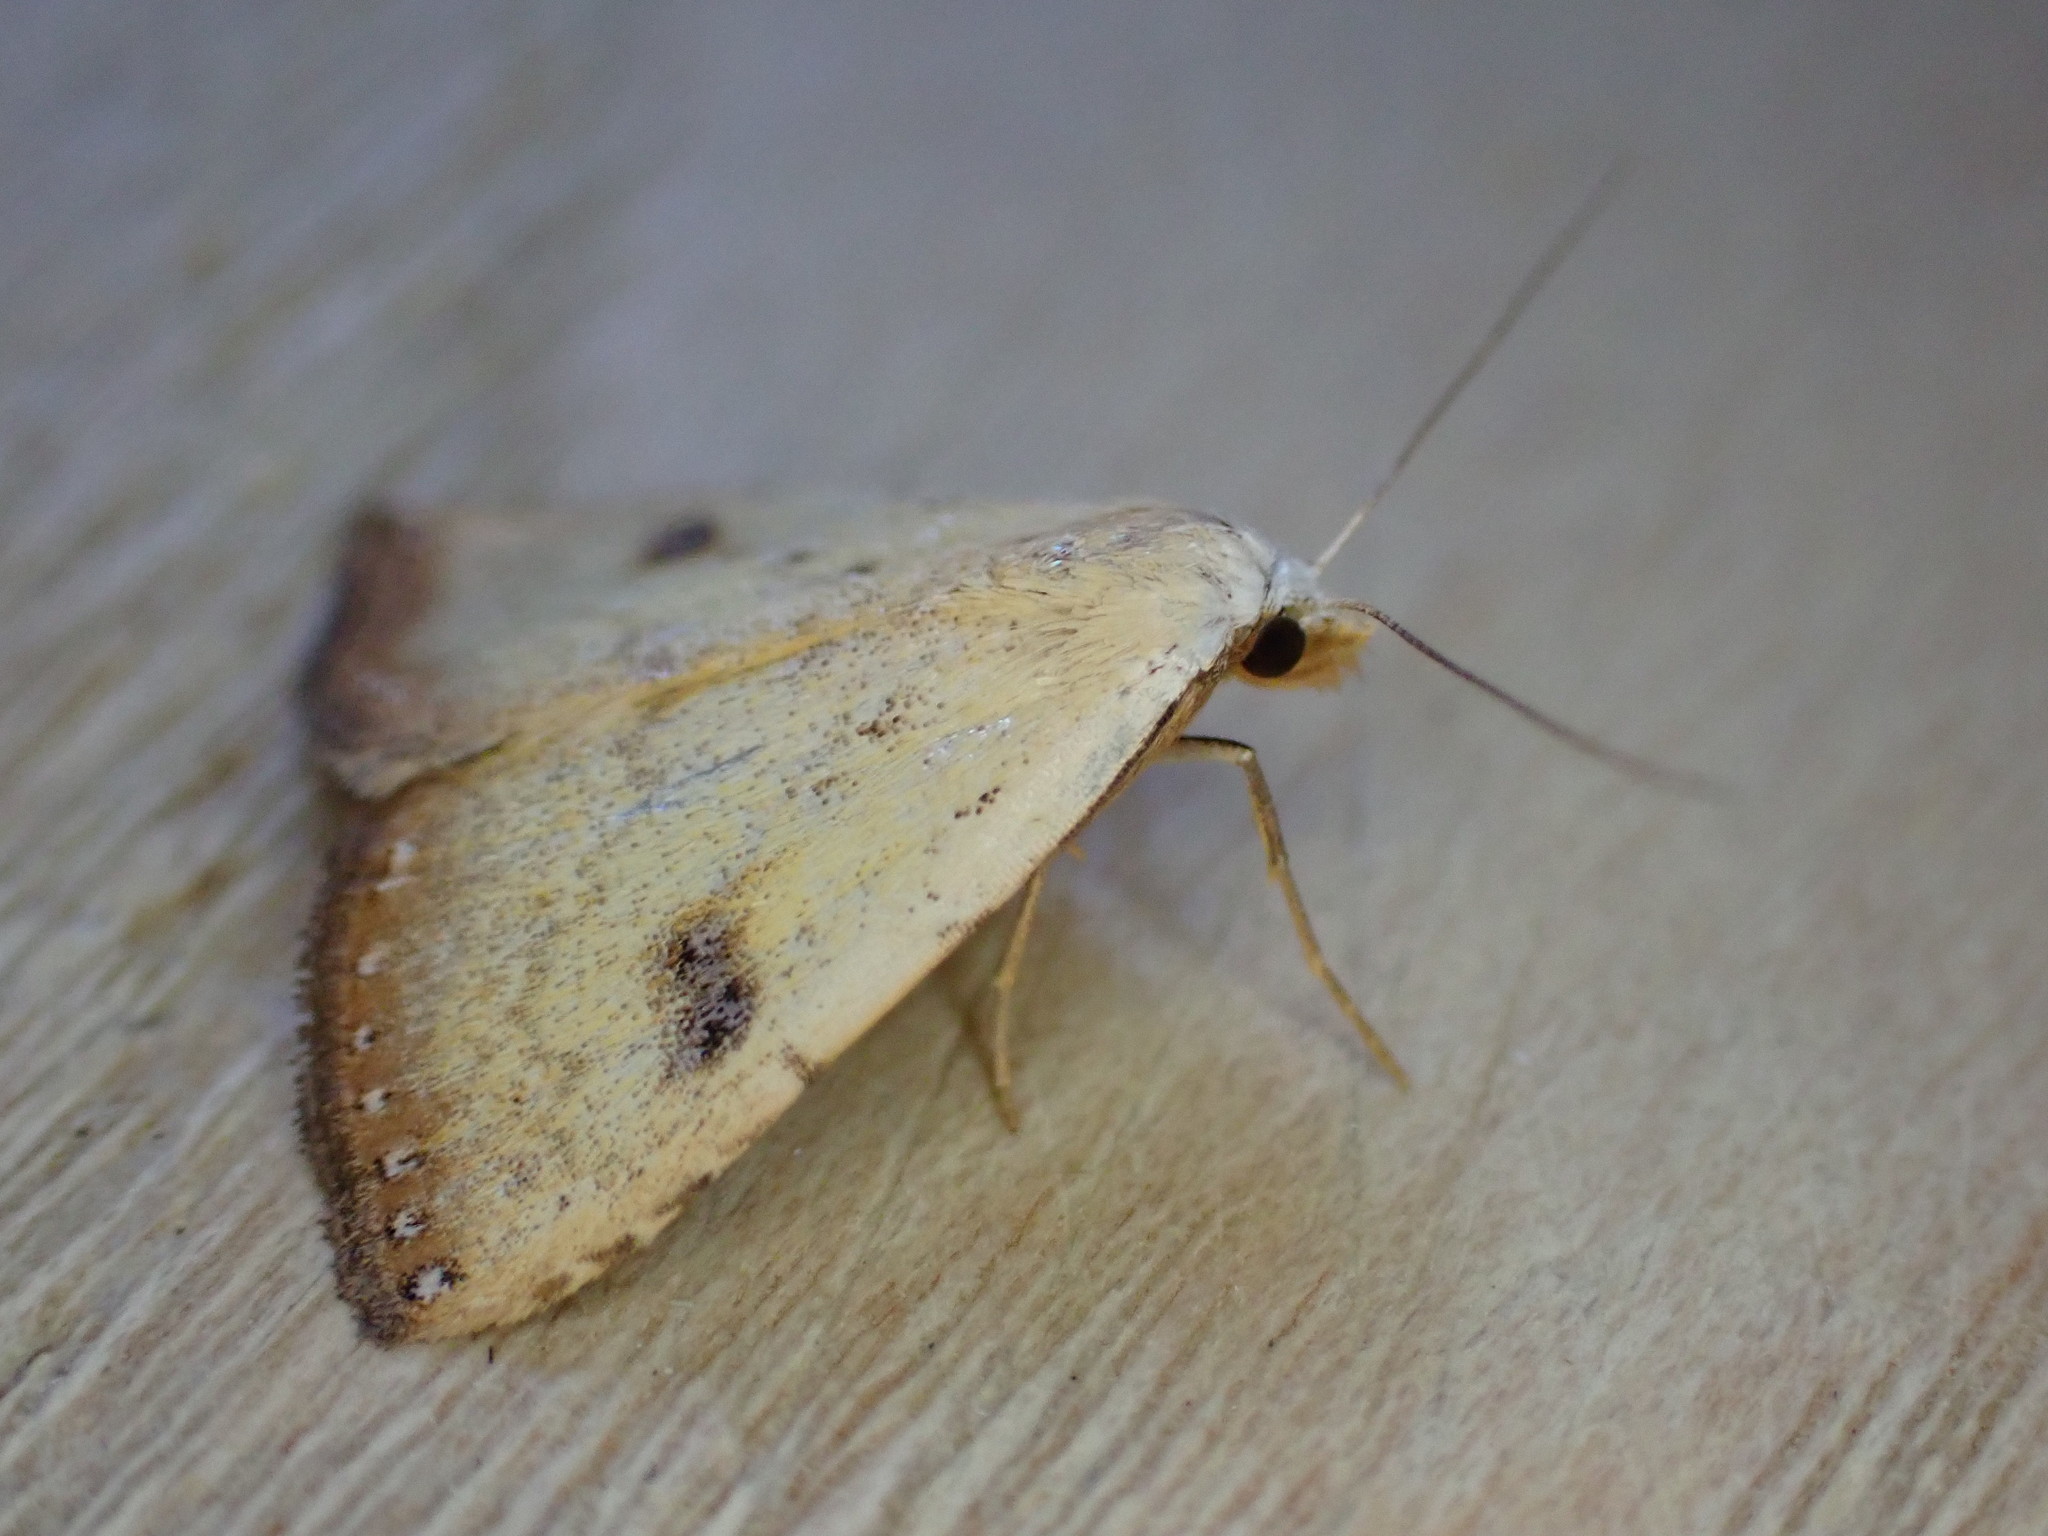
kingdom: Animalia
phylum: Arthropoda
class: Insecta
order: Lepidoptera
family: Erebidae
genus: Rivula
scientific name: Rivula sericealis
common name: Straw dot
